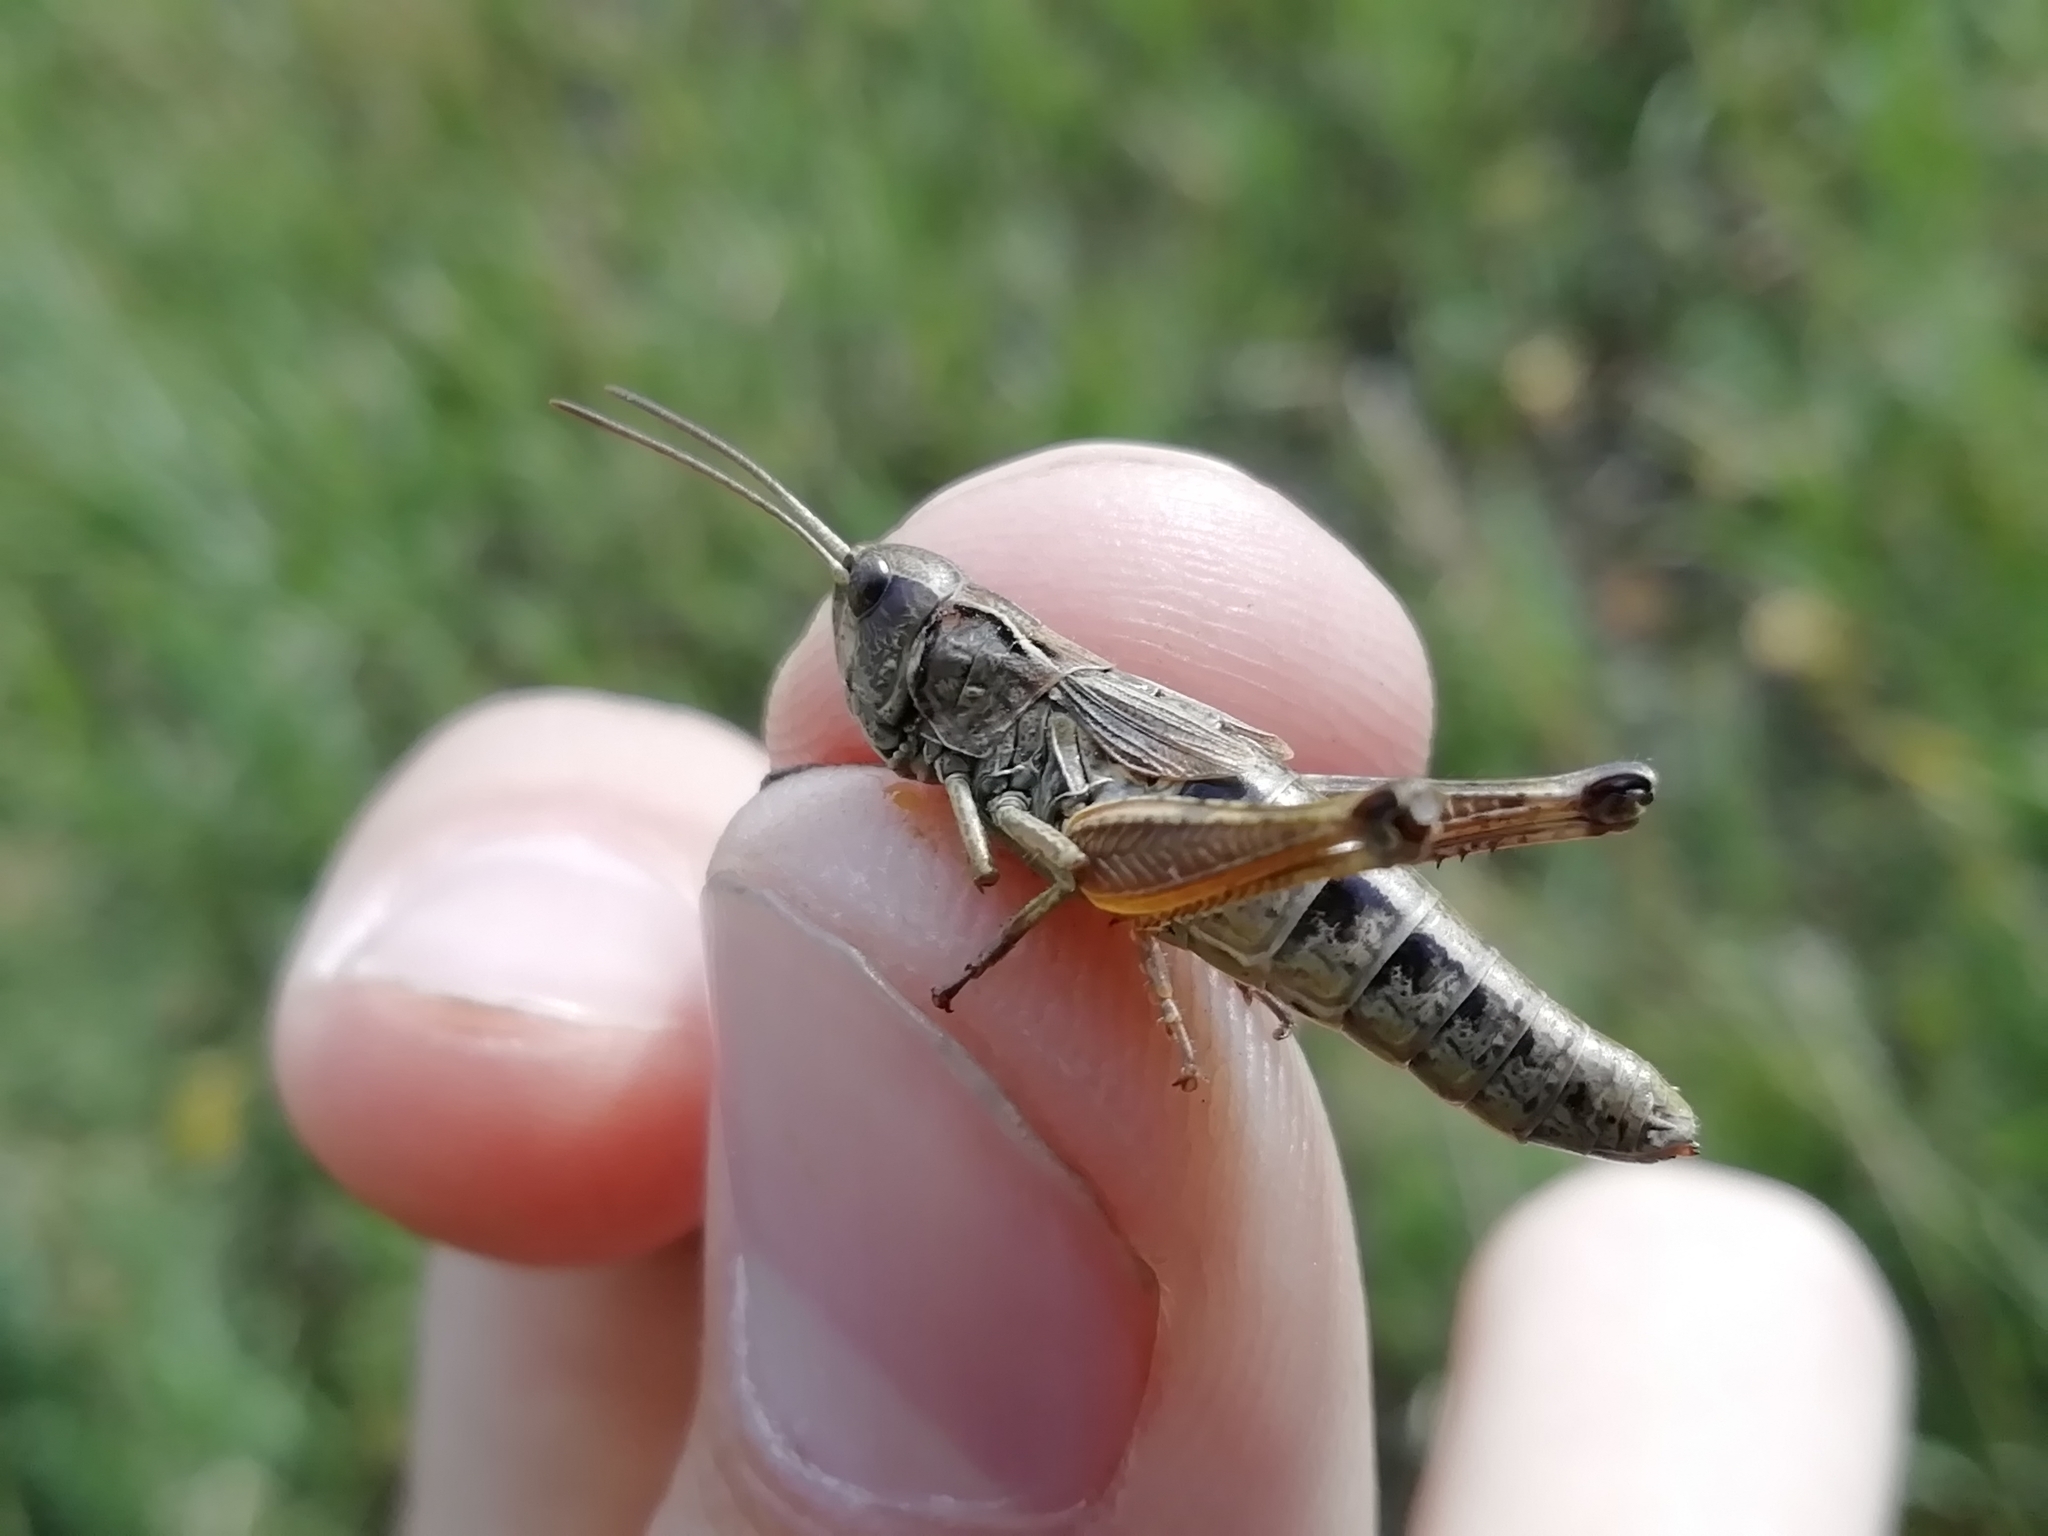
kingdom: Animalia
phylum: Arthropoda
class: Insecta
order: Orthoptera
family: Acrididae
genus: Chorthippus
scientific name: Chorthippus fallax
